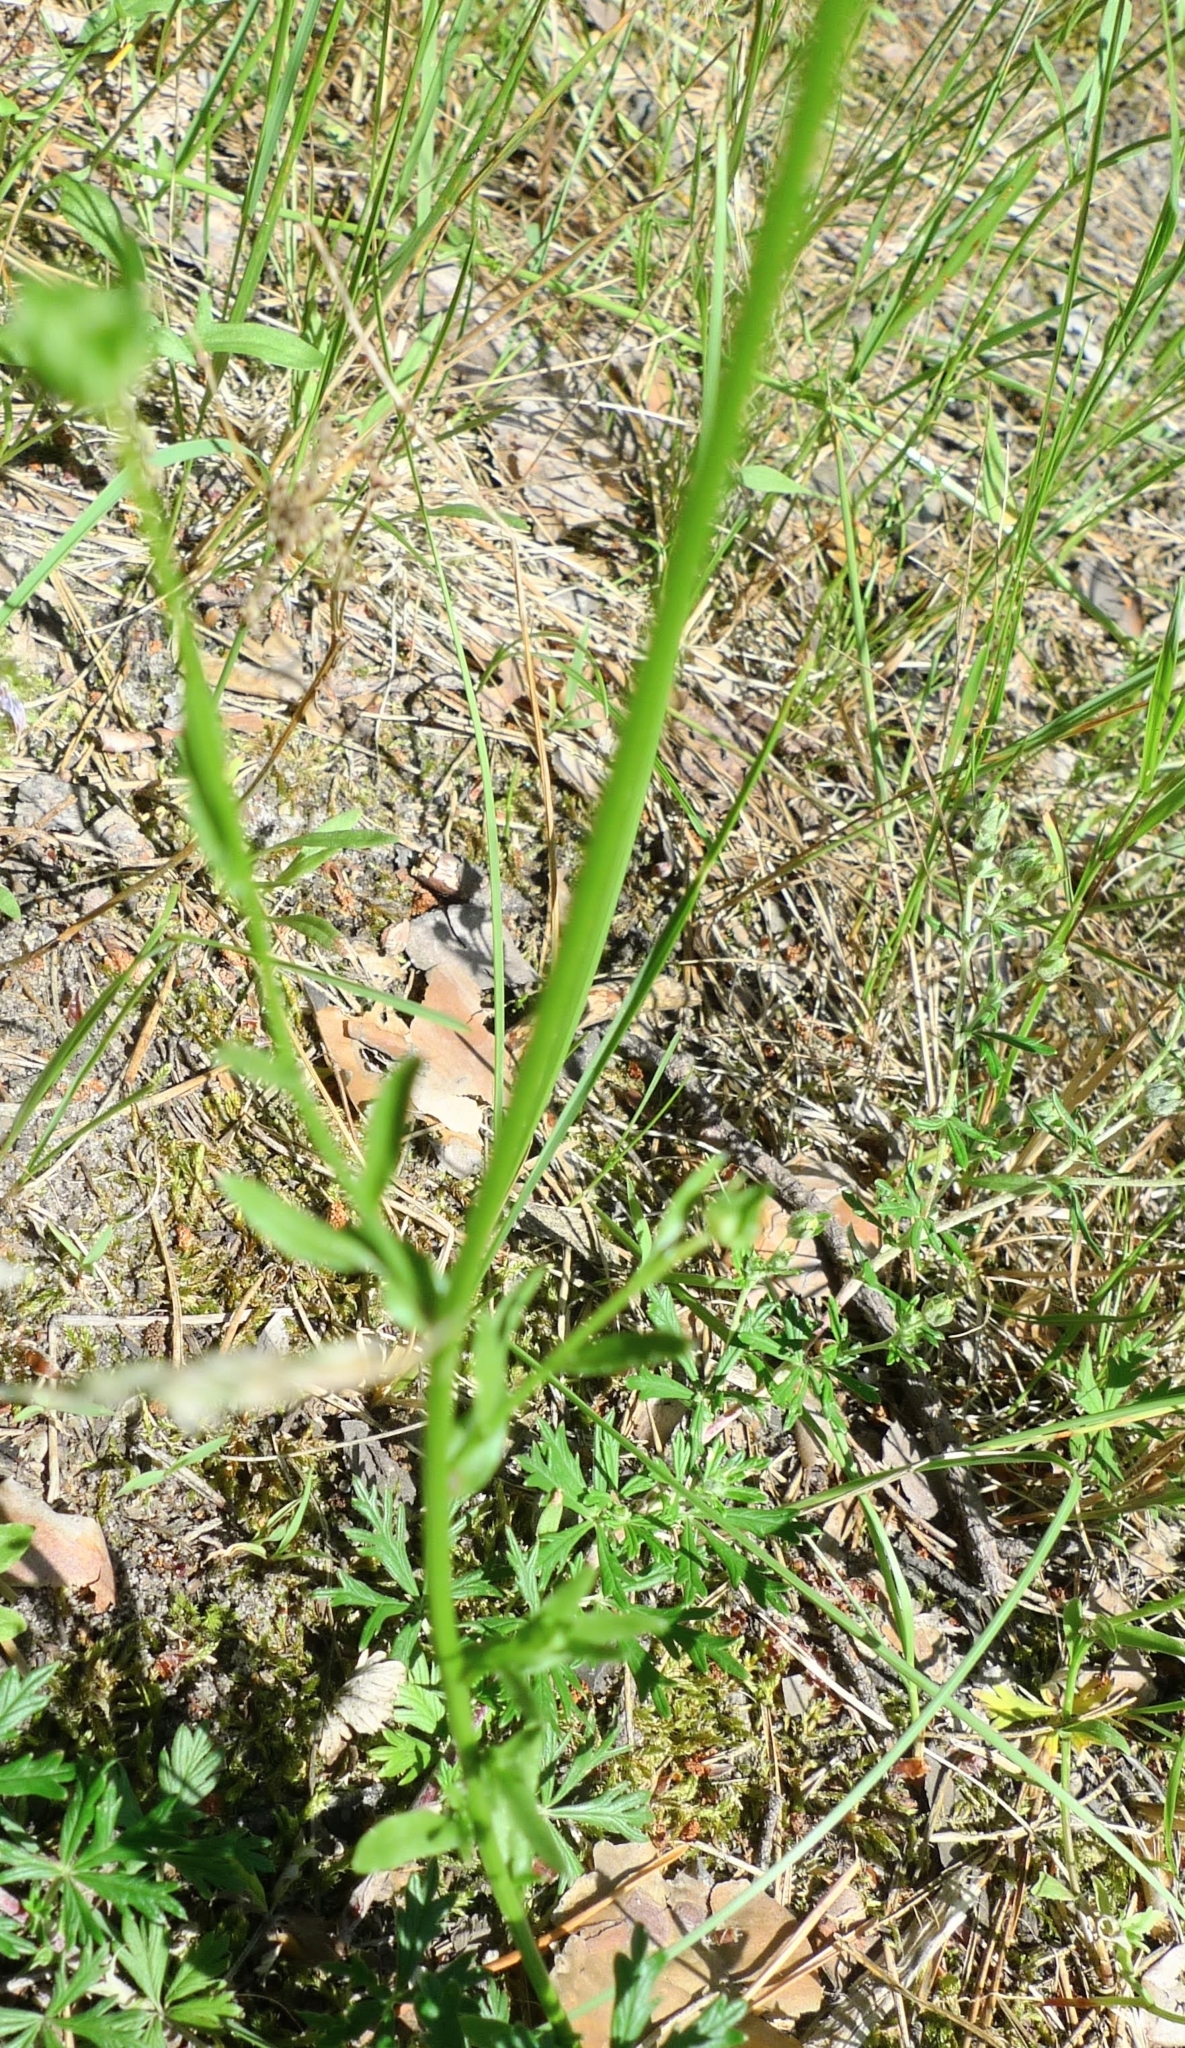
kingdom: Plantae
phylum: Tracheophyta
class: Magnoliopsida
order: Asterales
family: Campanulaceae
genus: Jasione
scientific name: Jasione montana
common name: Sheep's-bit
